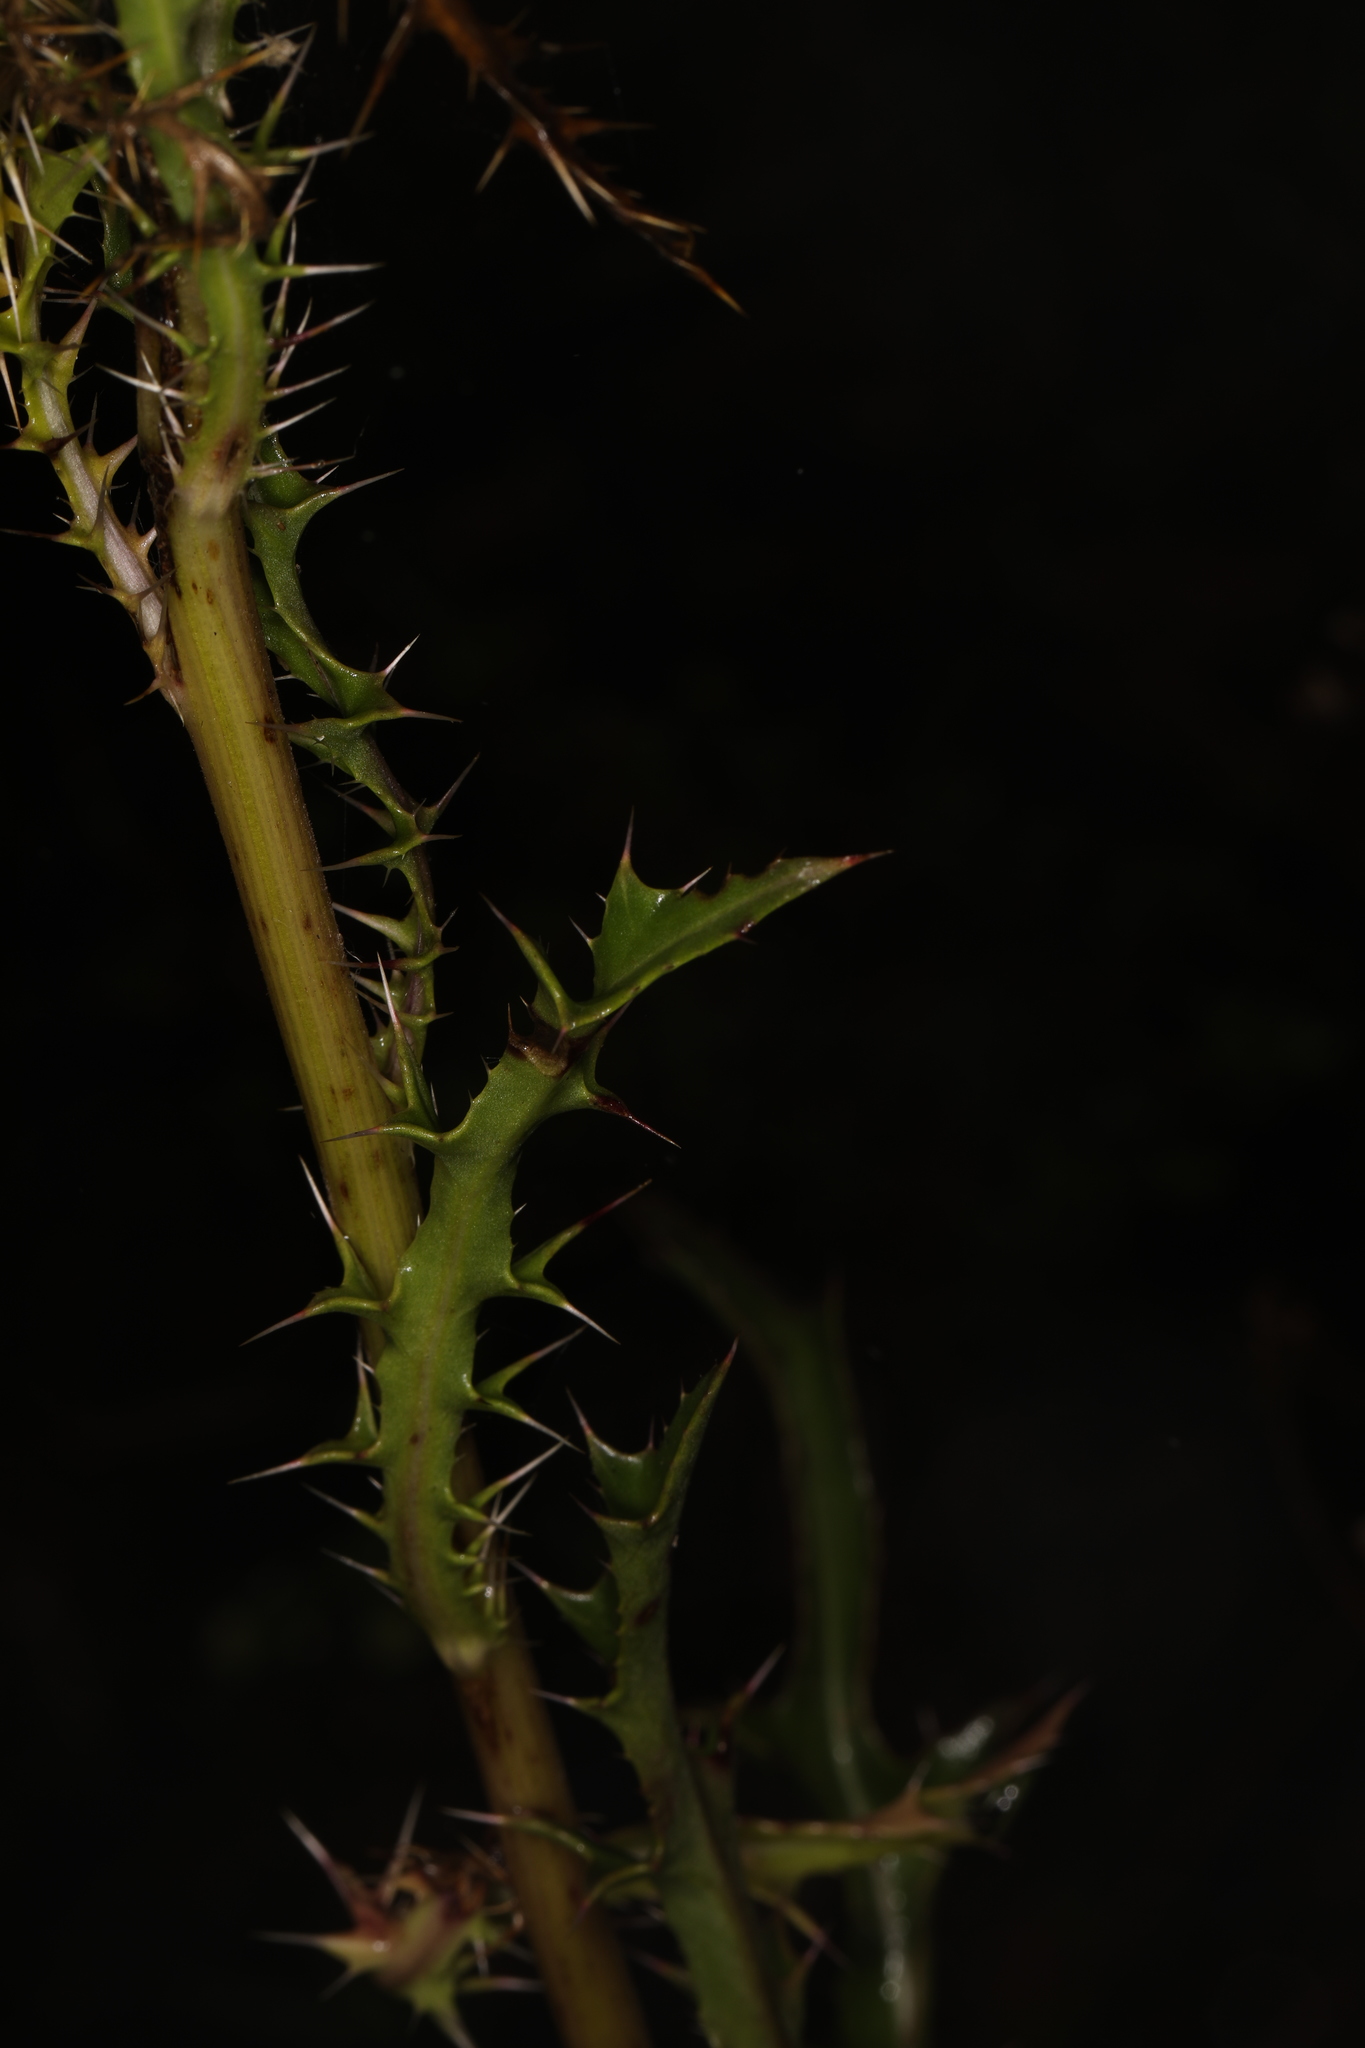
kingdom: Plantae
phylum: Tracheophyta
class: Magnoliopsida
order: Asterales
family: Asteraceae
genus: Cirsium
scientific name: Cirsium horridulum
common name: Bristly thistle
